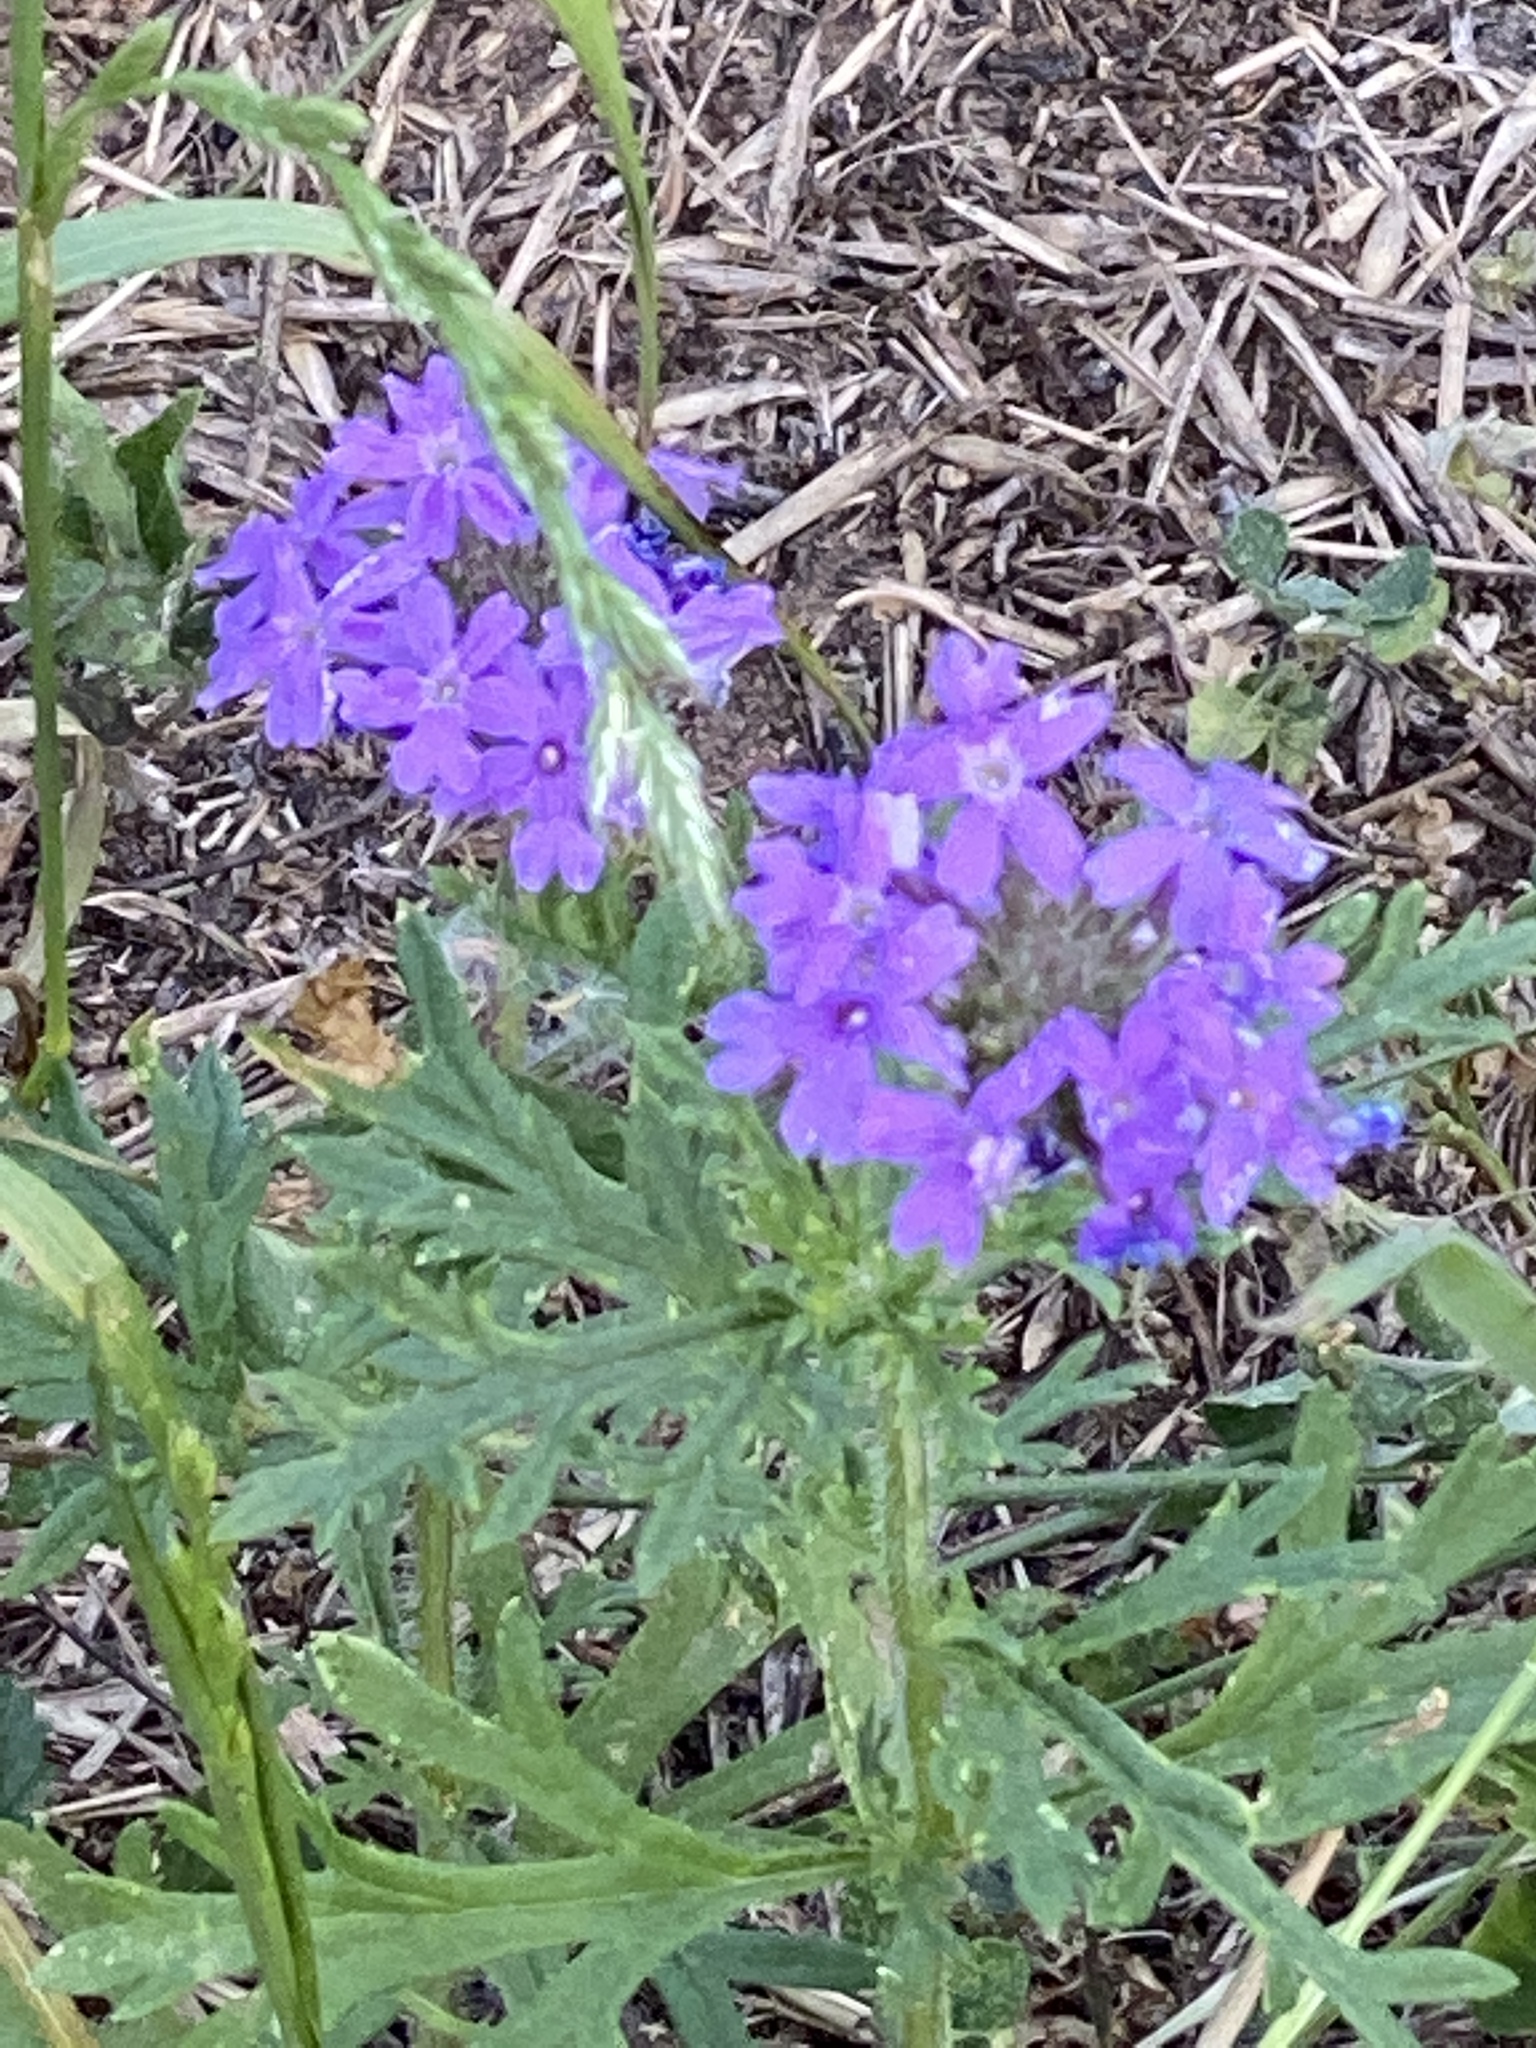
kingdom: Plantae
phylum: Tracheophyta
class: Magnoliopsida
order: Lamiales
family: Verbenaceae
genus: Verbena
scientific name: Verbena bipinnatifida
